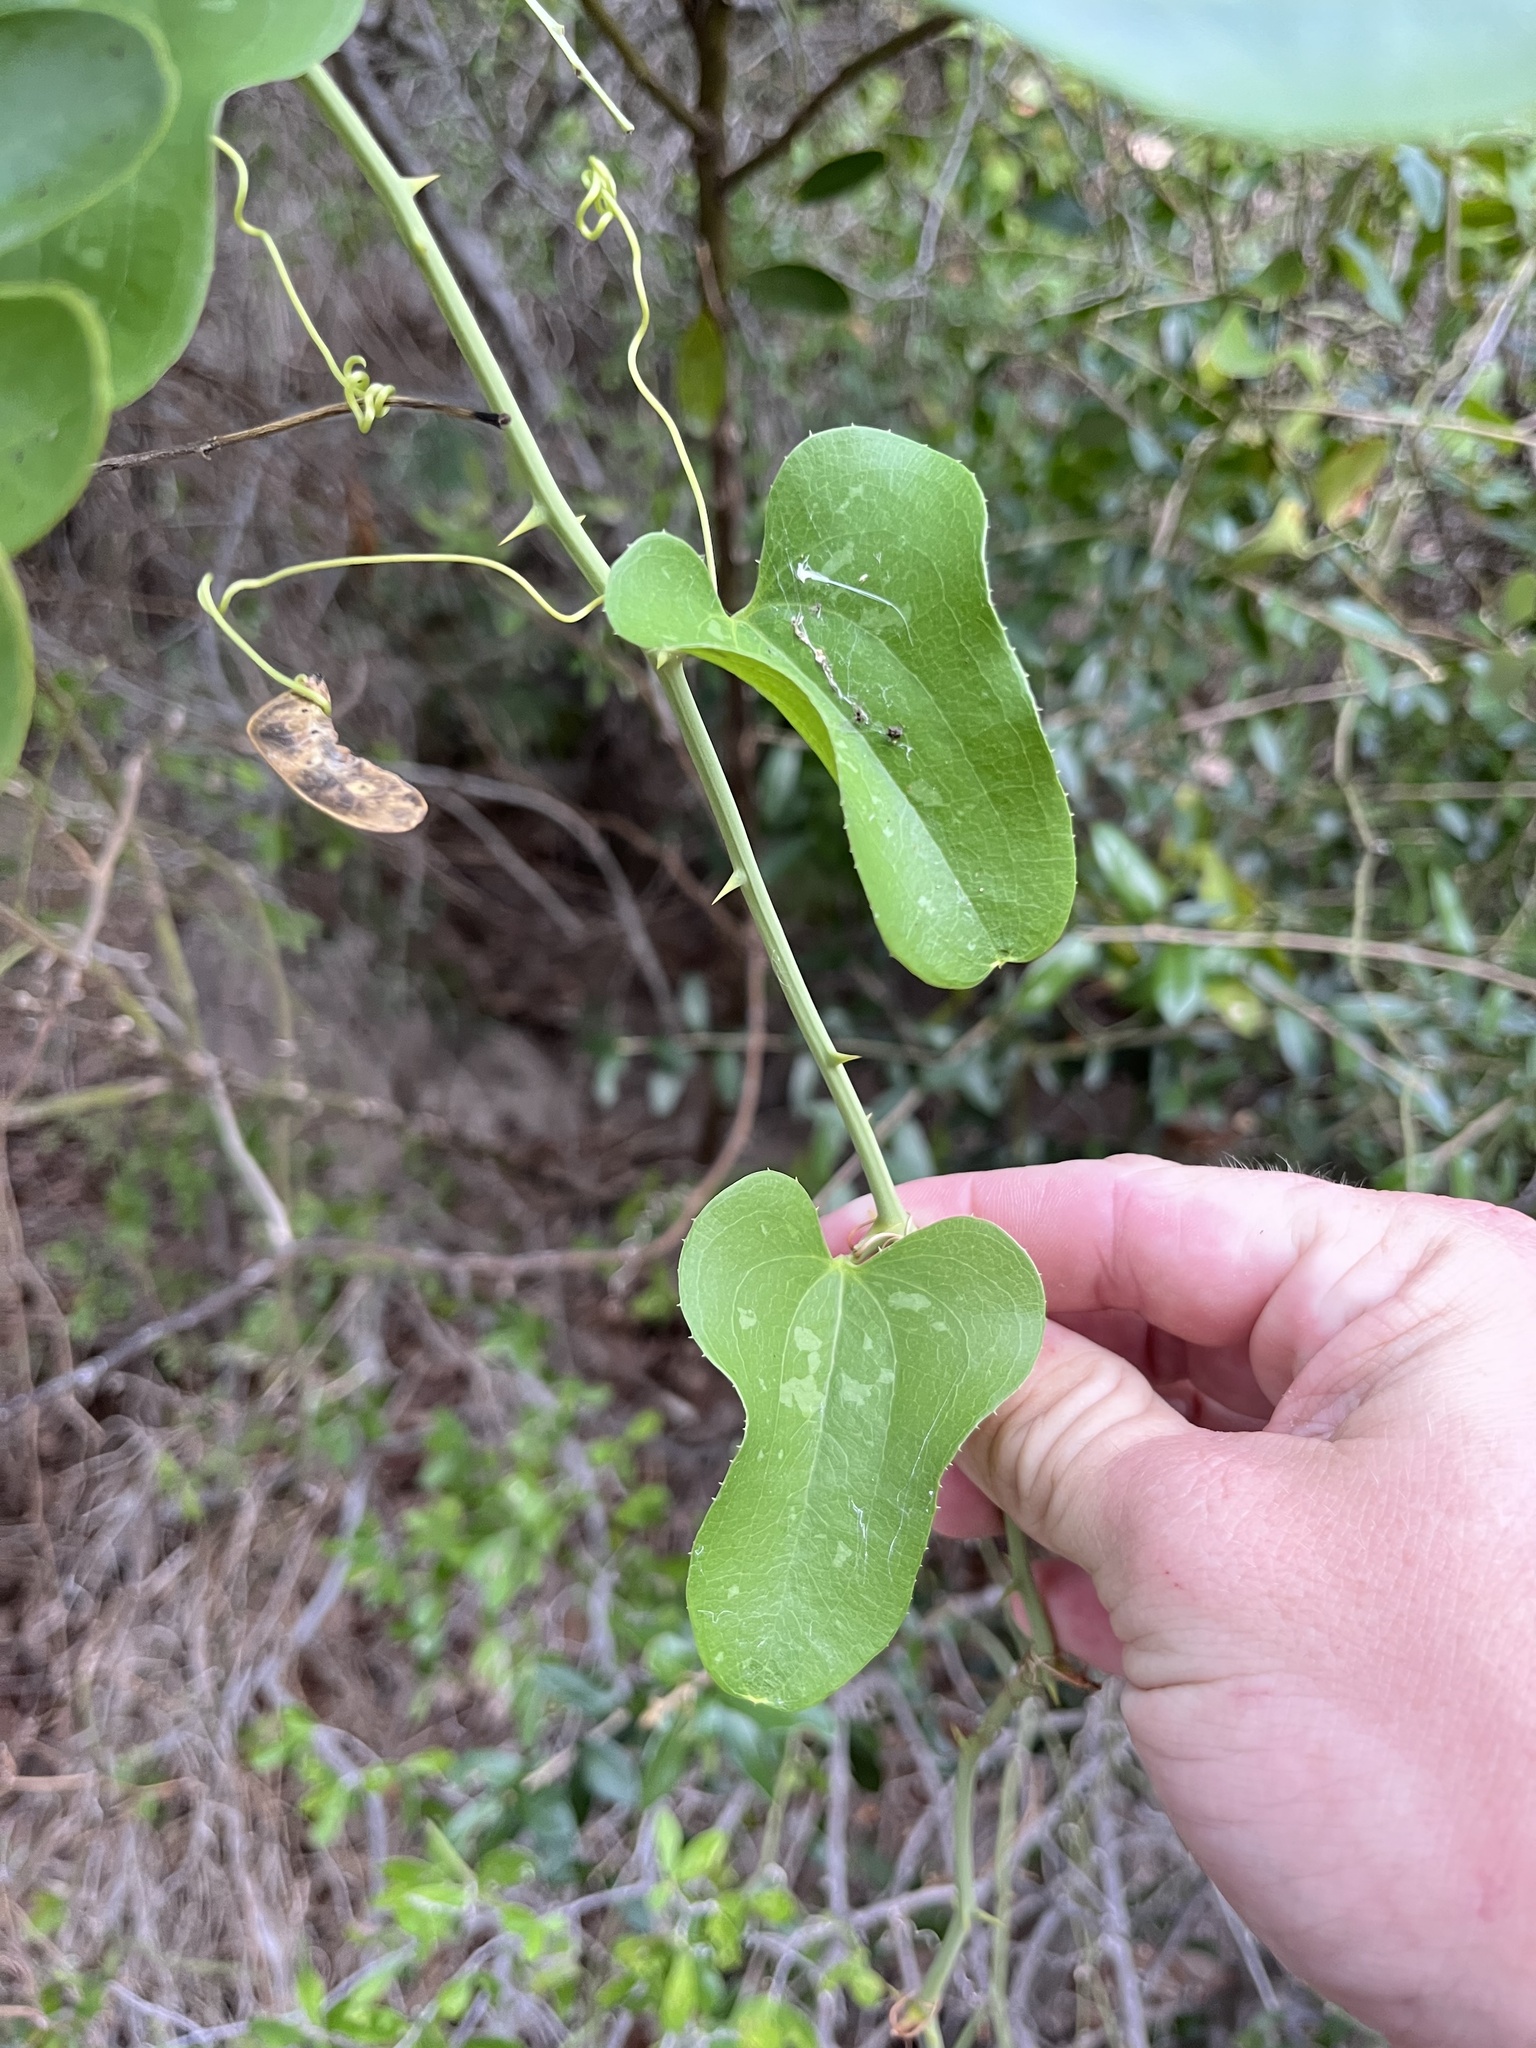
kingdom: Plantae
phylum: Tracheophyta
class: Liliopsida
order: Liliales
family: Smilacaceae
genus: Smilax
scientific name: Smilax bona-nox
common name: Catbrier
